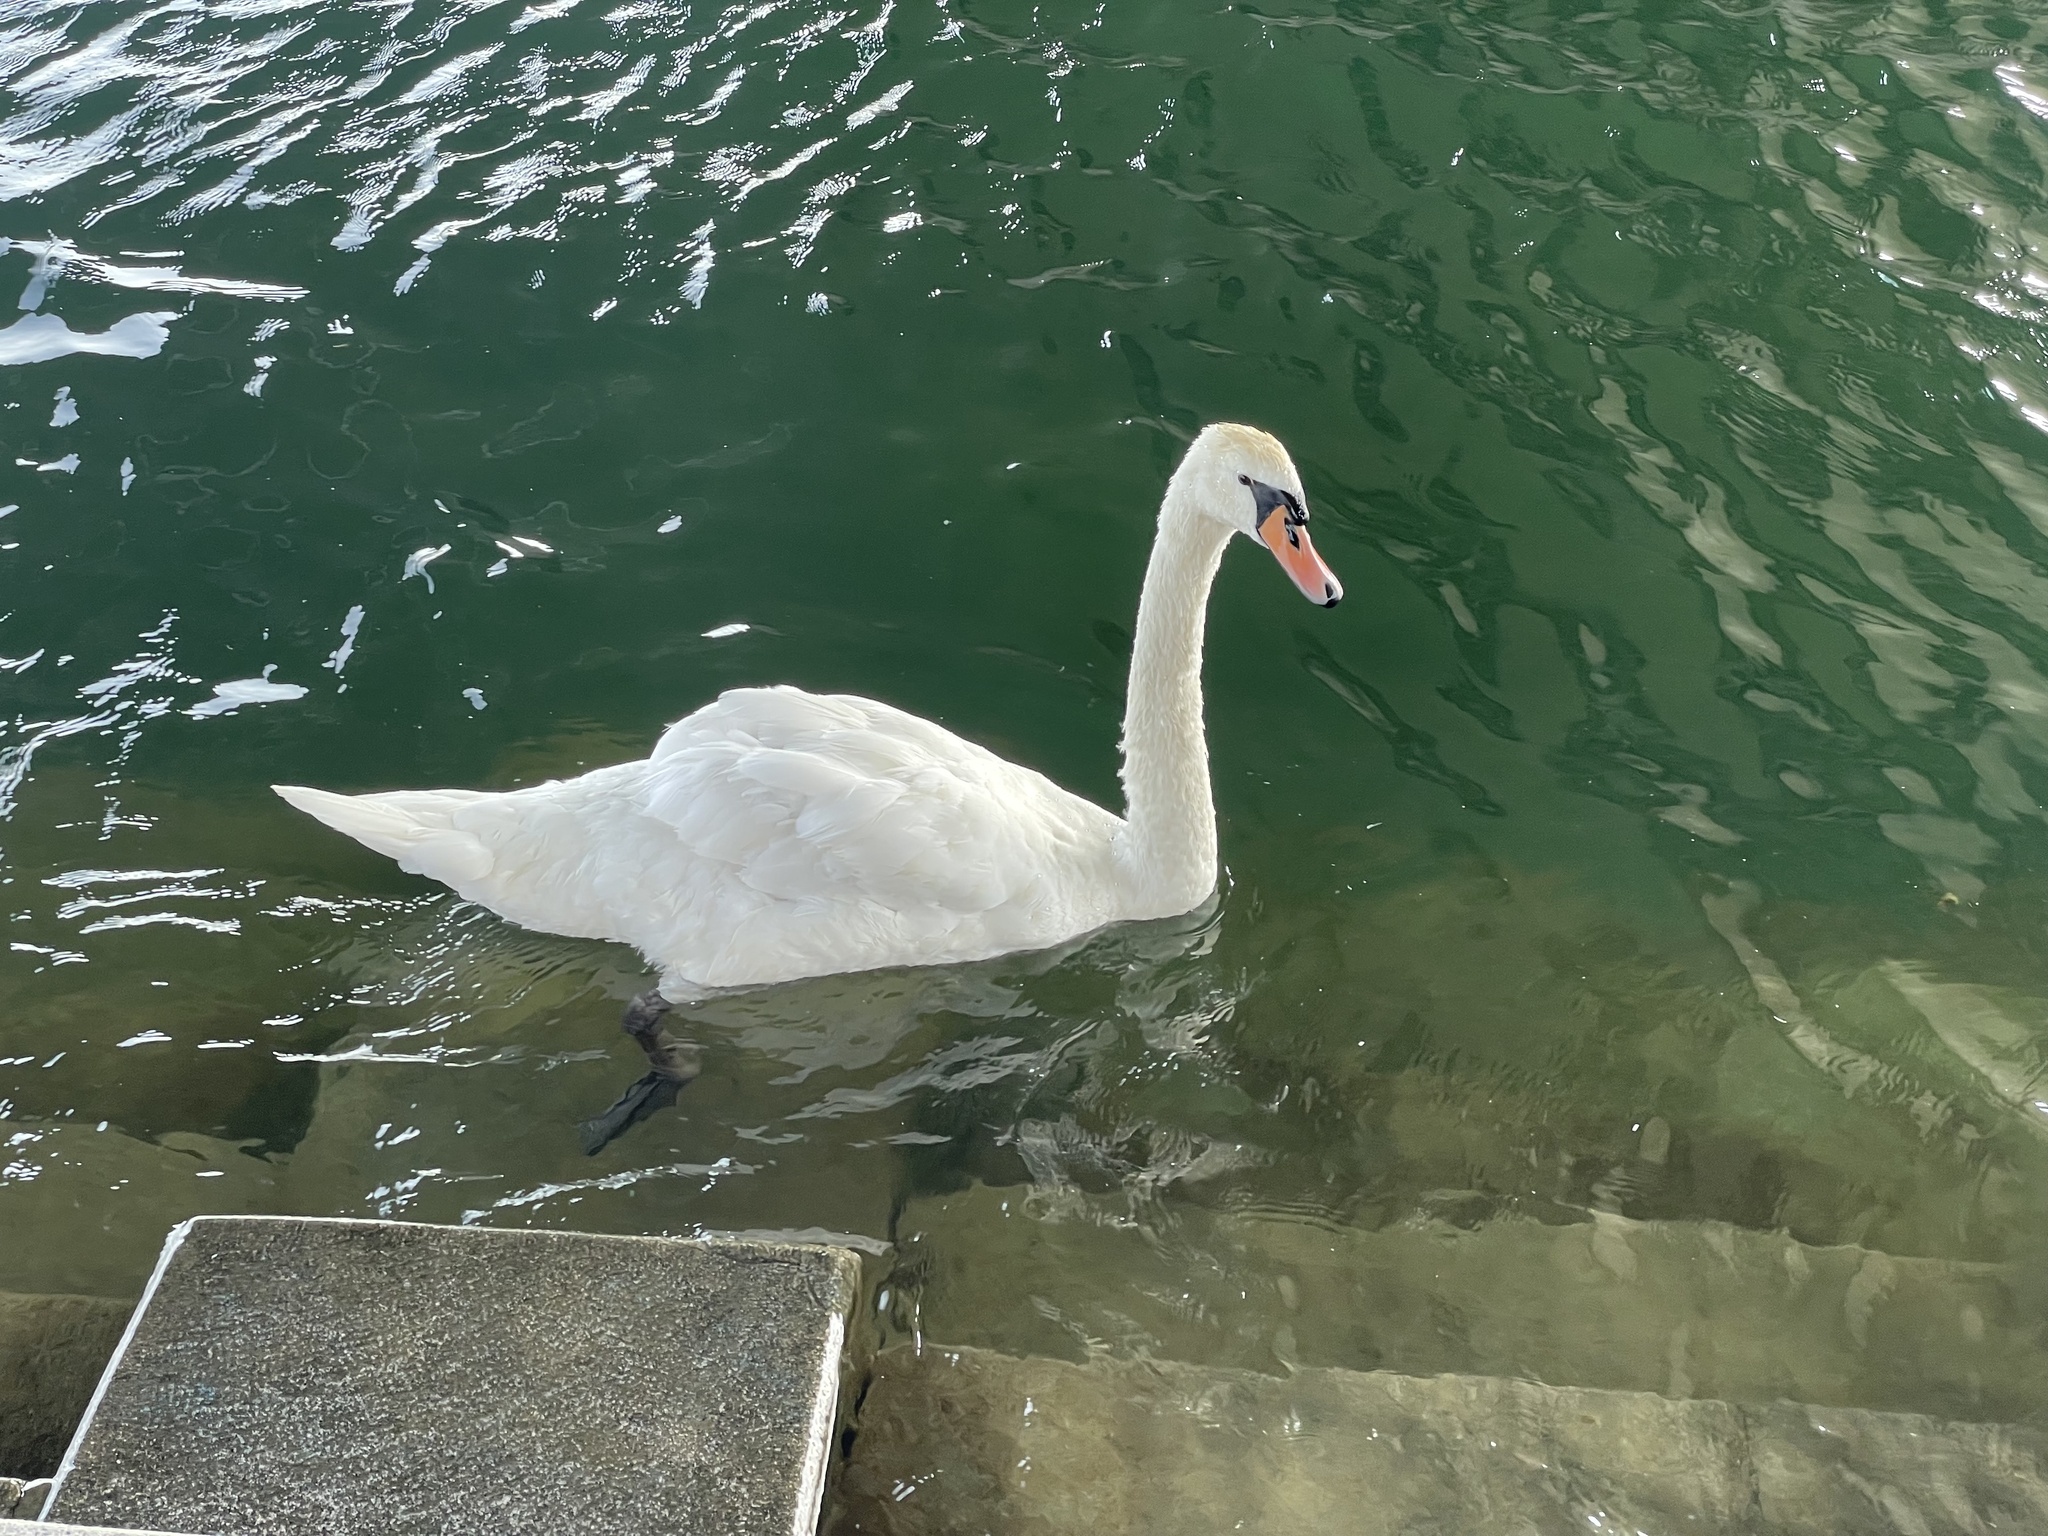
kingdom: Animalia
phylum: Chordata
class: Aves
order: Anseriformes
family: Anatidae
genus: Cygnus
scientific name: Cygnus olor
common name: Mute swan
